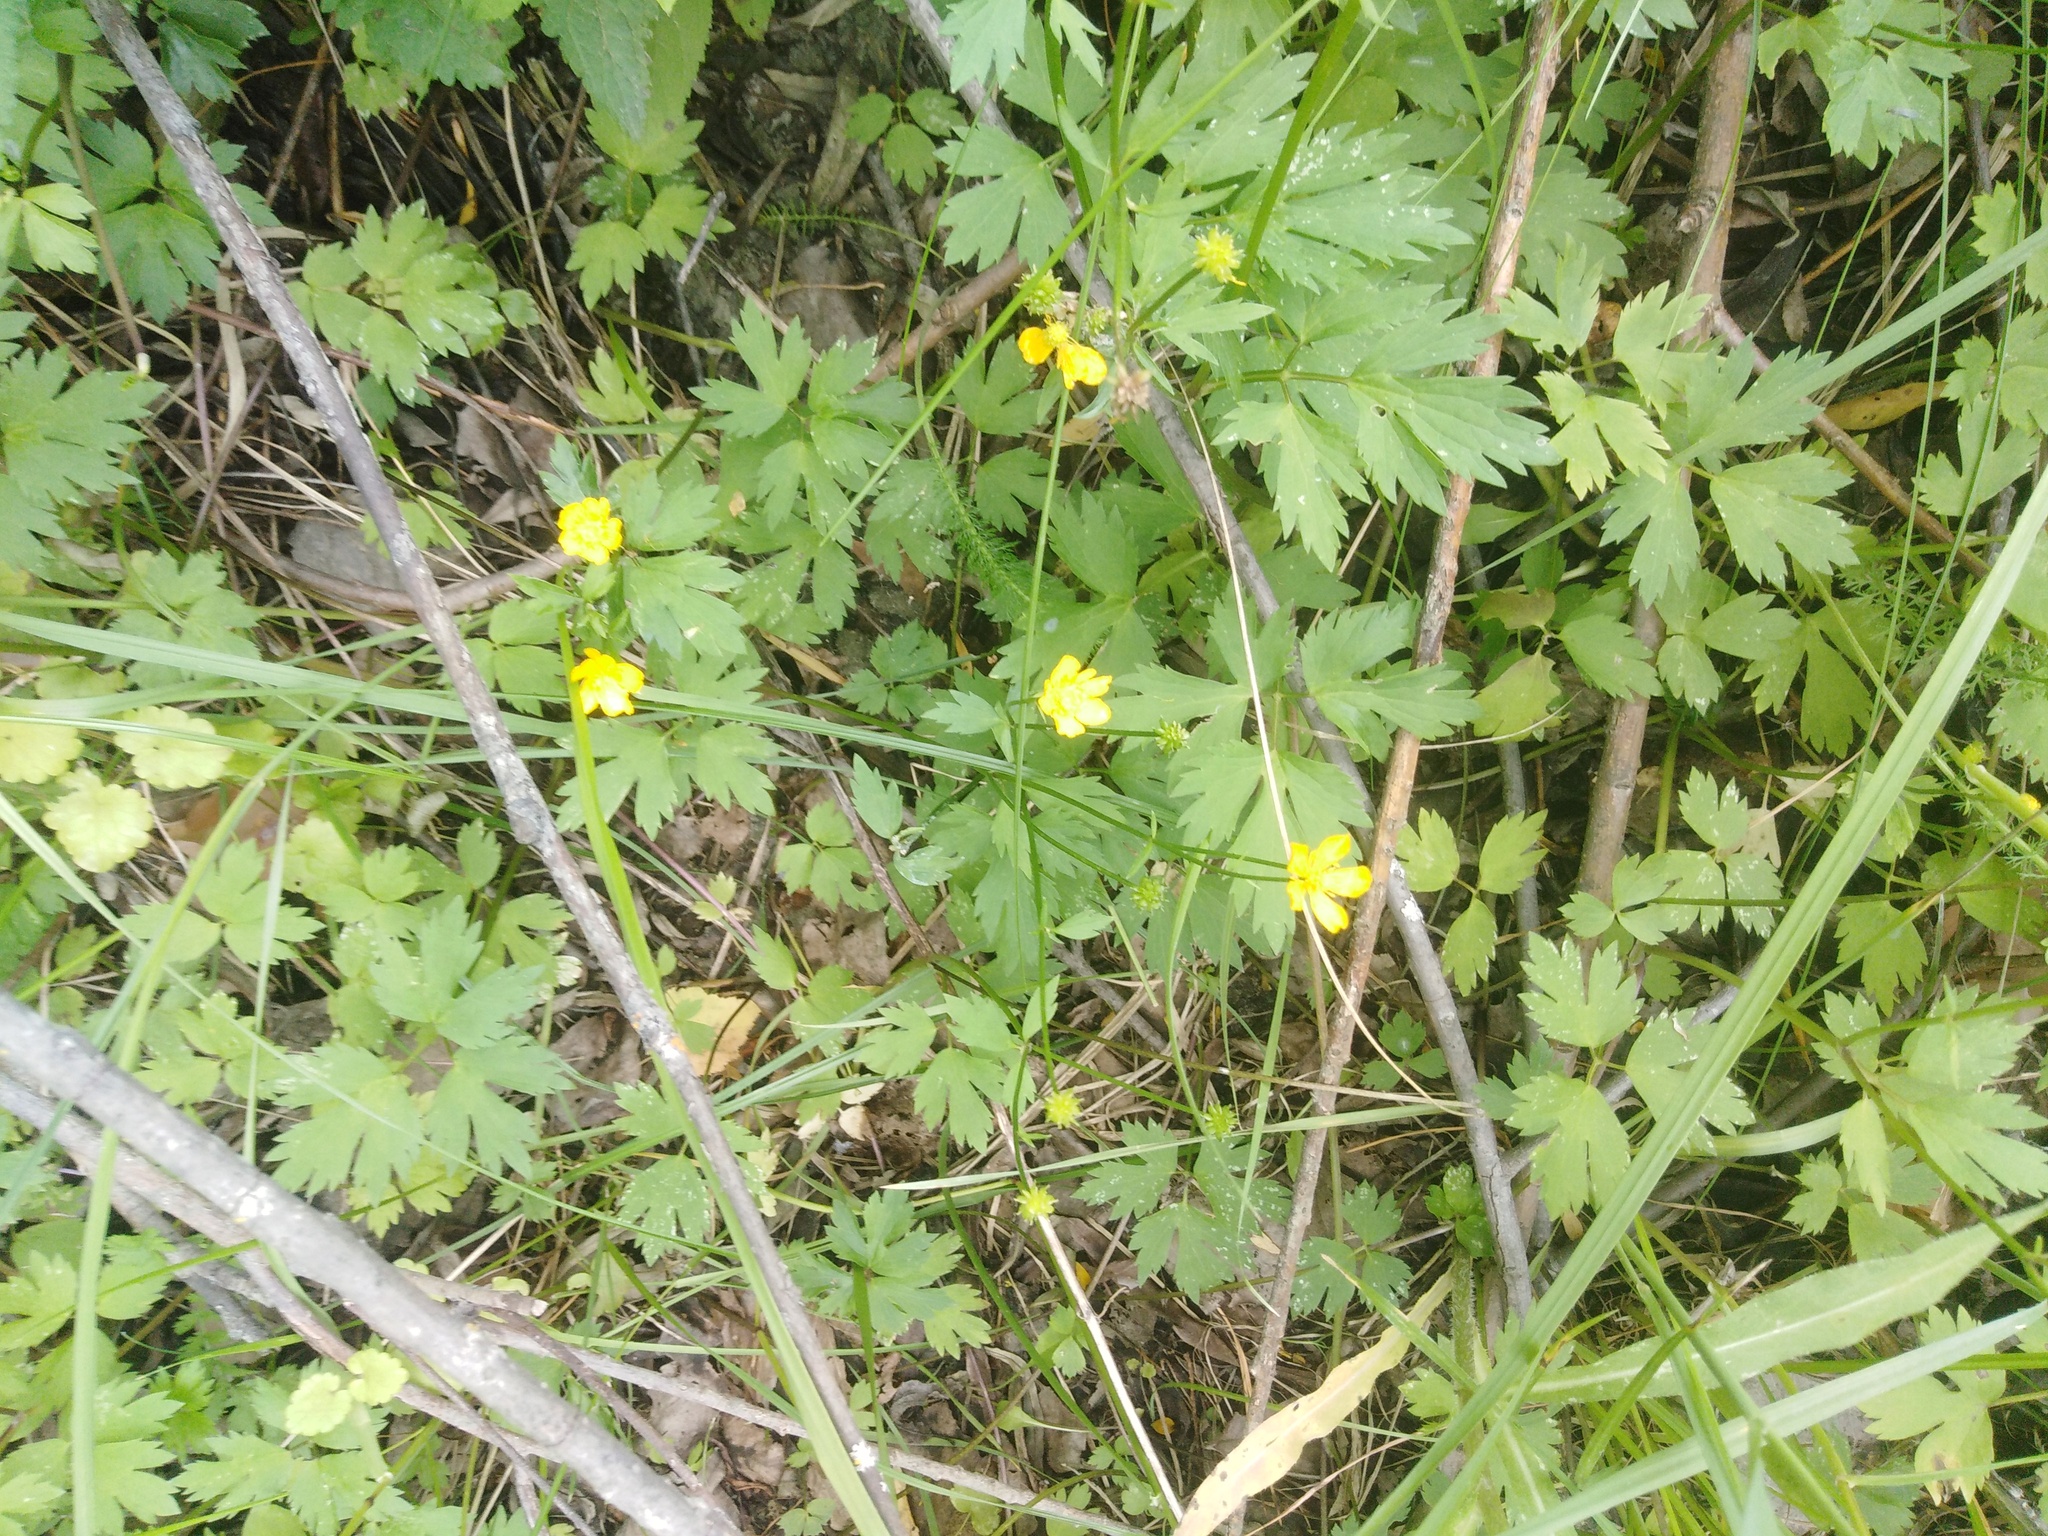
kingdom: Plantae
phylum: Tracheophyta
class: Magnoliopsida
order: Ranunculales
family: Ranunculaceae
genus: Ranunculus
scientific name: Ranunculus repens
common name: Creeping buttercup
